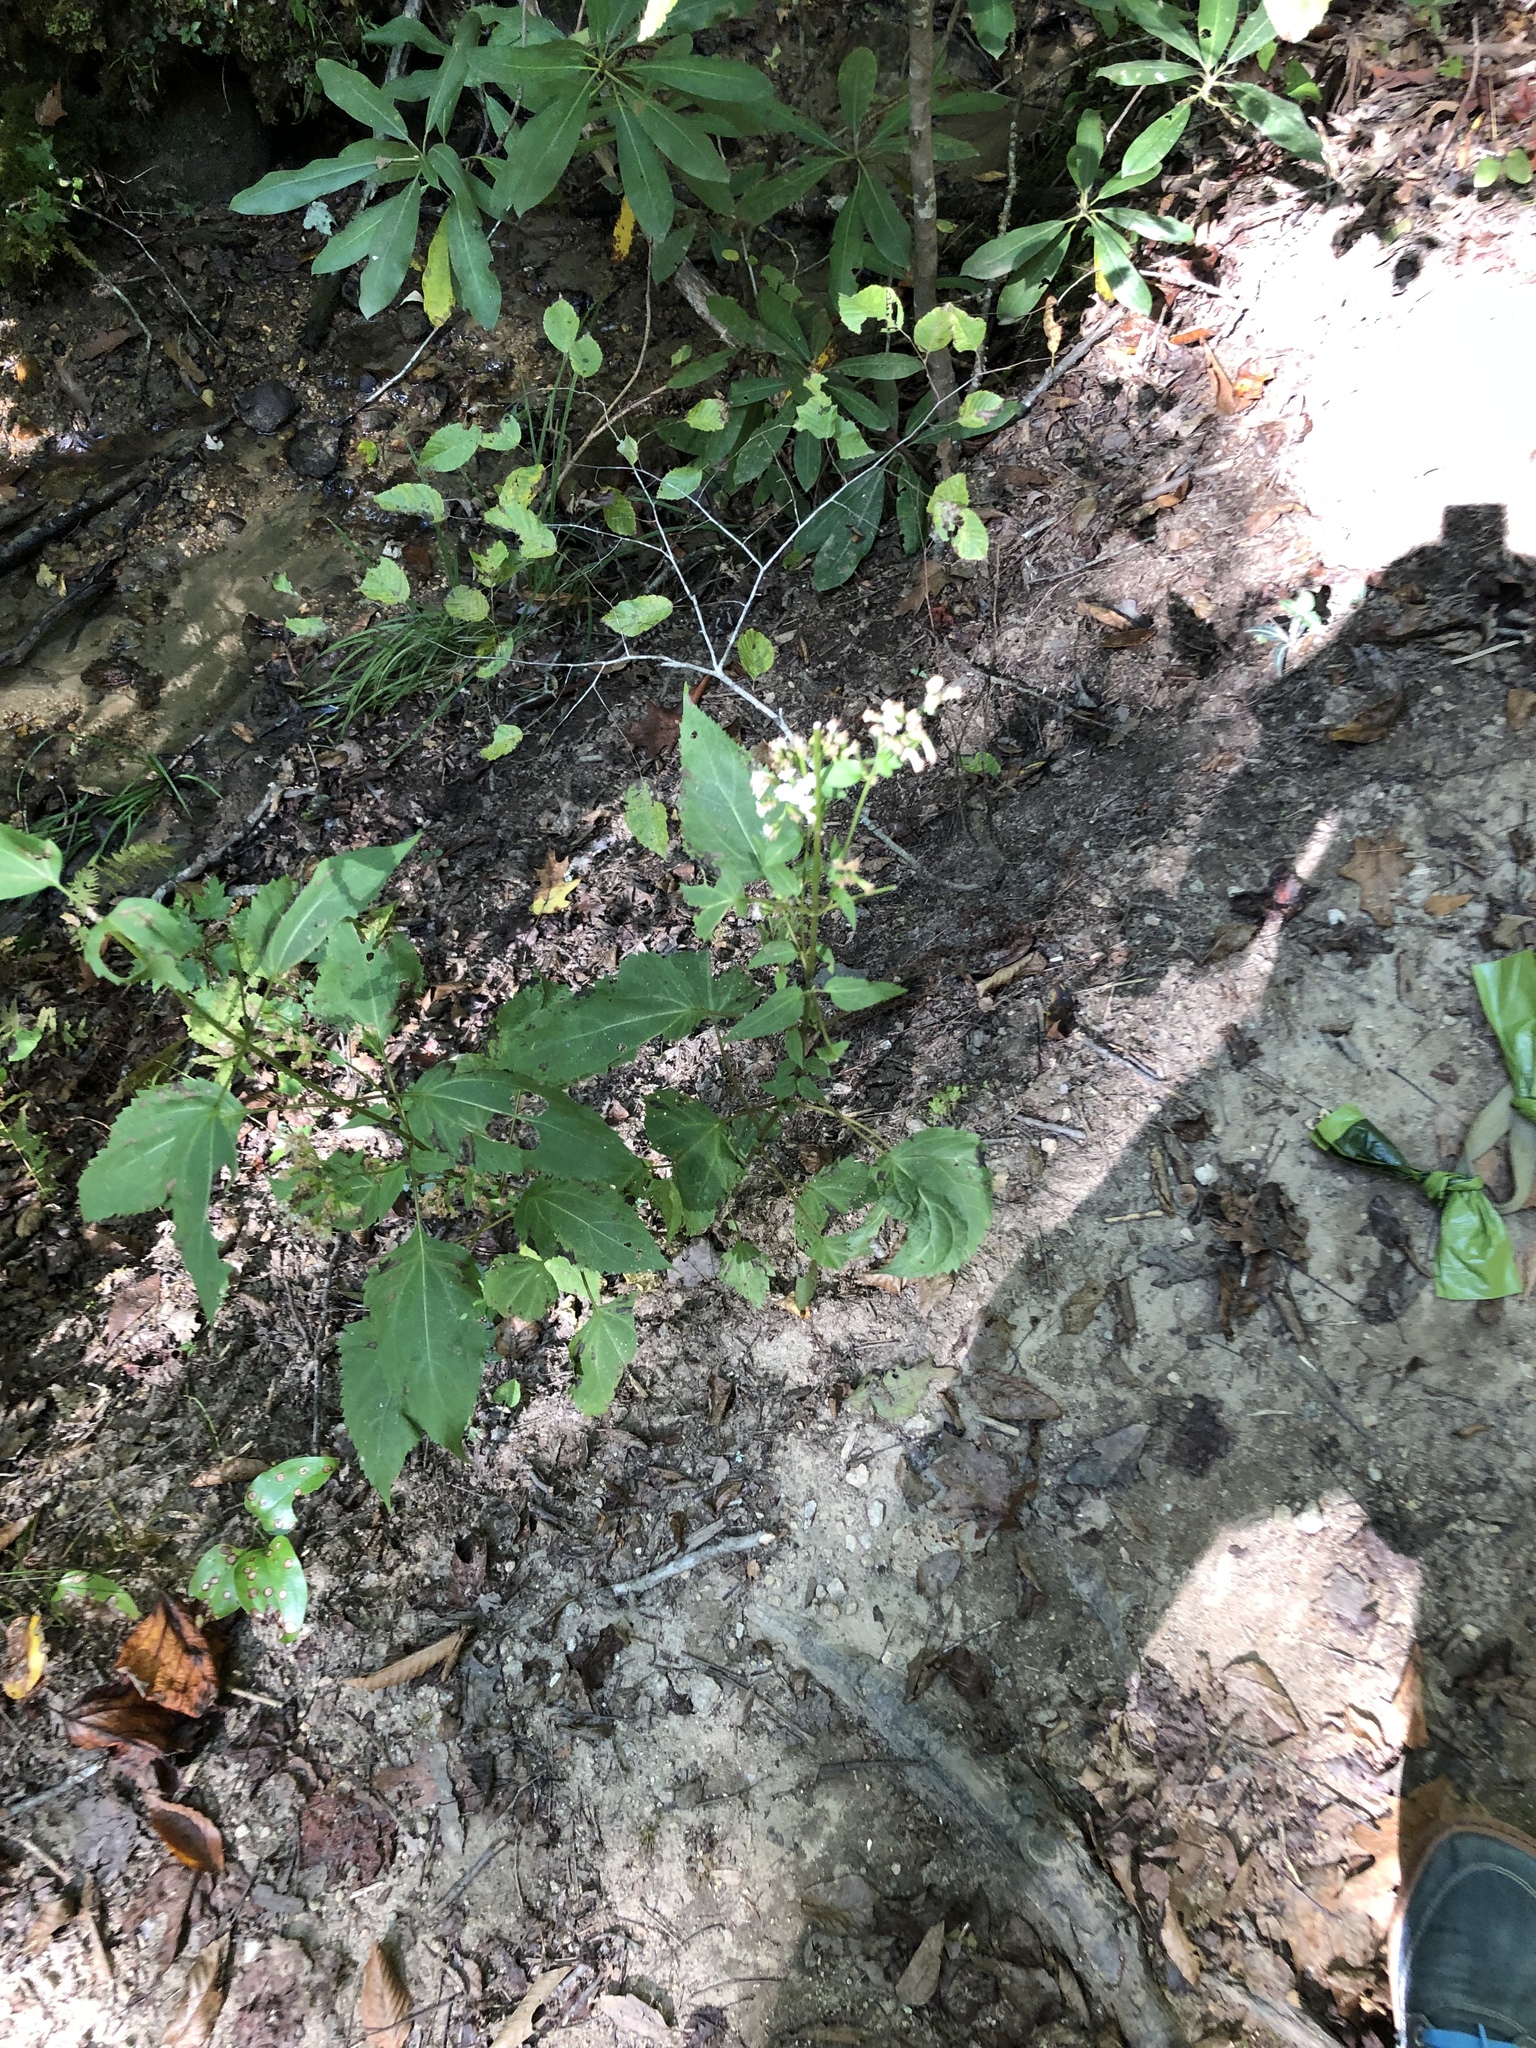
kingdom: Plantae
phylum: Tracheophyta
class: Magnoliopsida
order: Asterales
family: Asteraceae
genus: Ageratina
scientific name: Ageratina altissima
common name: White snakeroot
